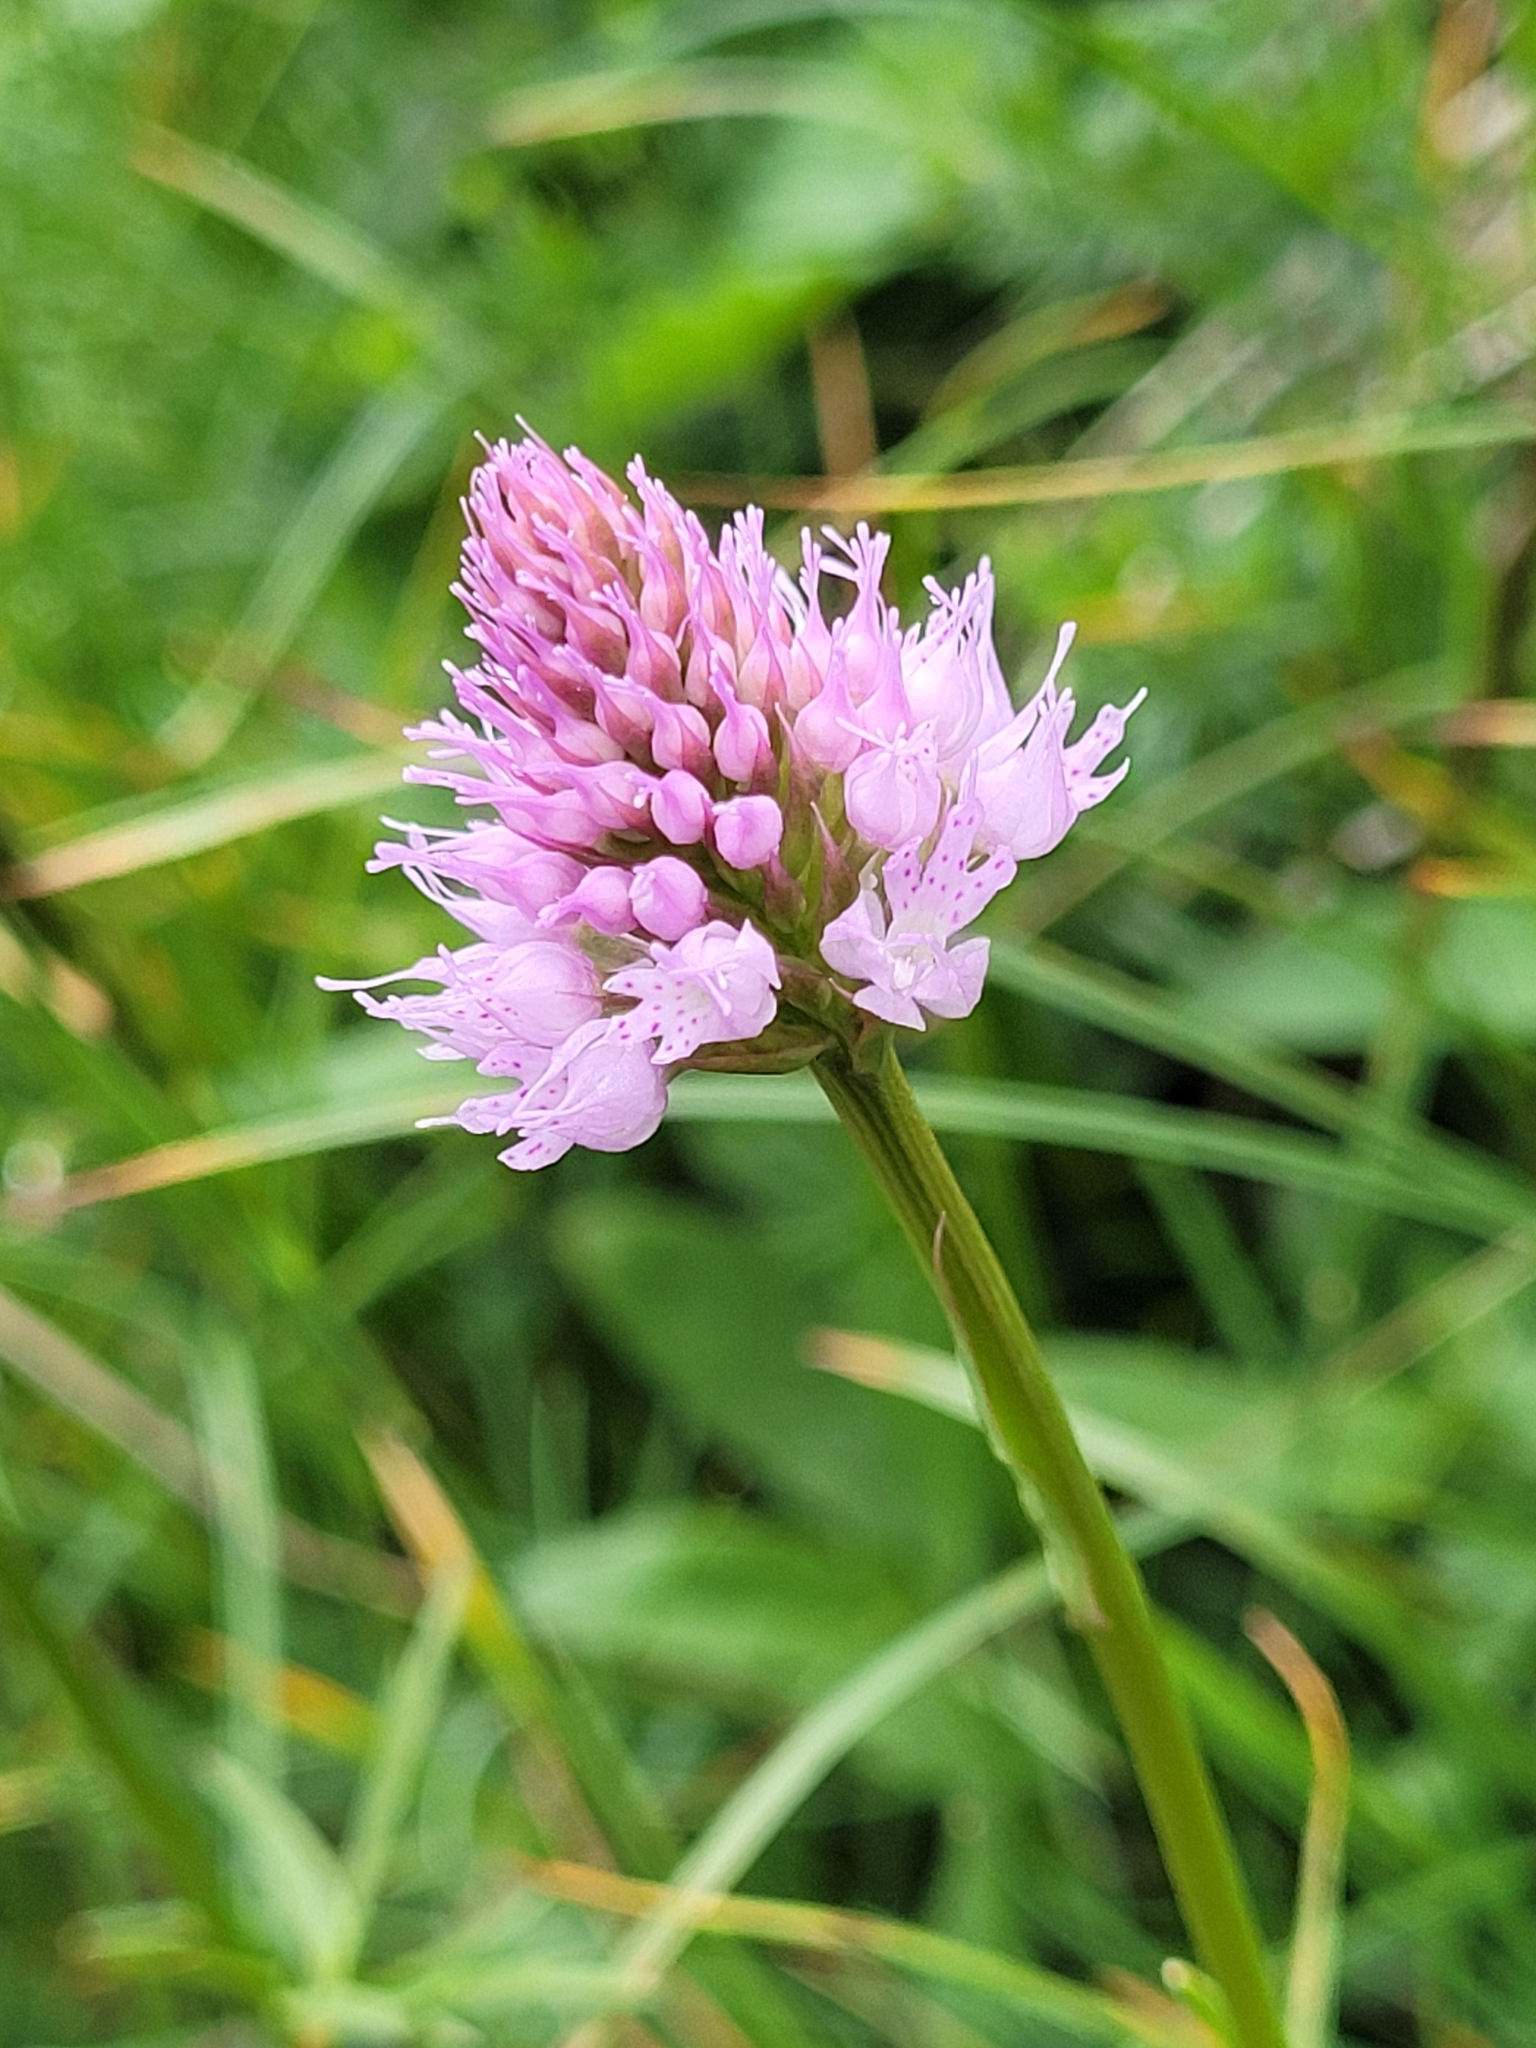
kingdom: Plantae
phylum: Tracheophyta
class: Liliopsida
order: Asparagales
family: Orchidaceae
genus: Traunsteinera
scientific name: Traunsteinera globosa
